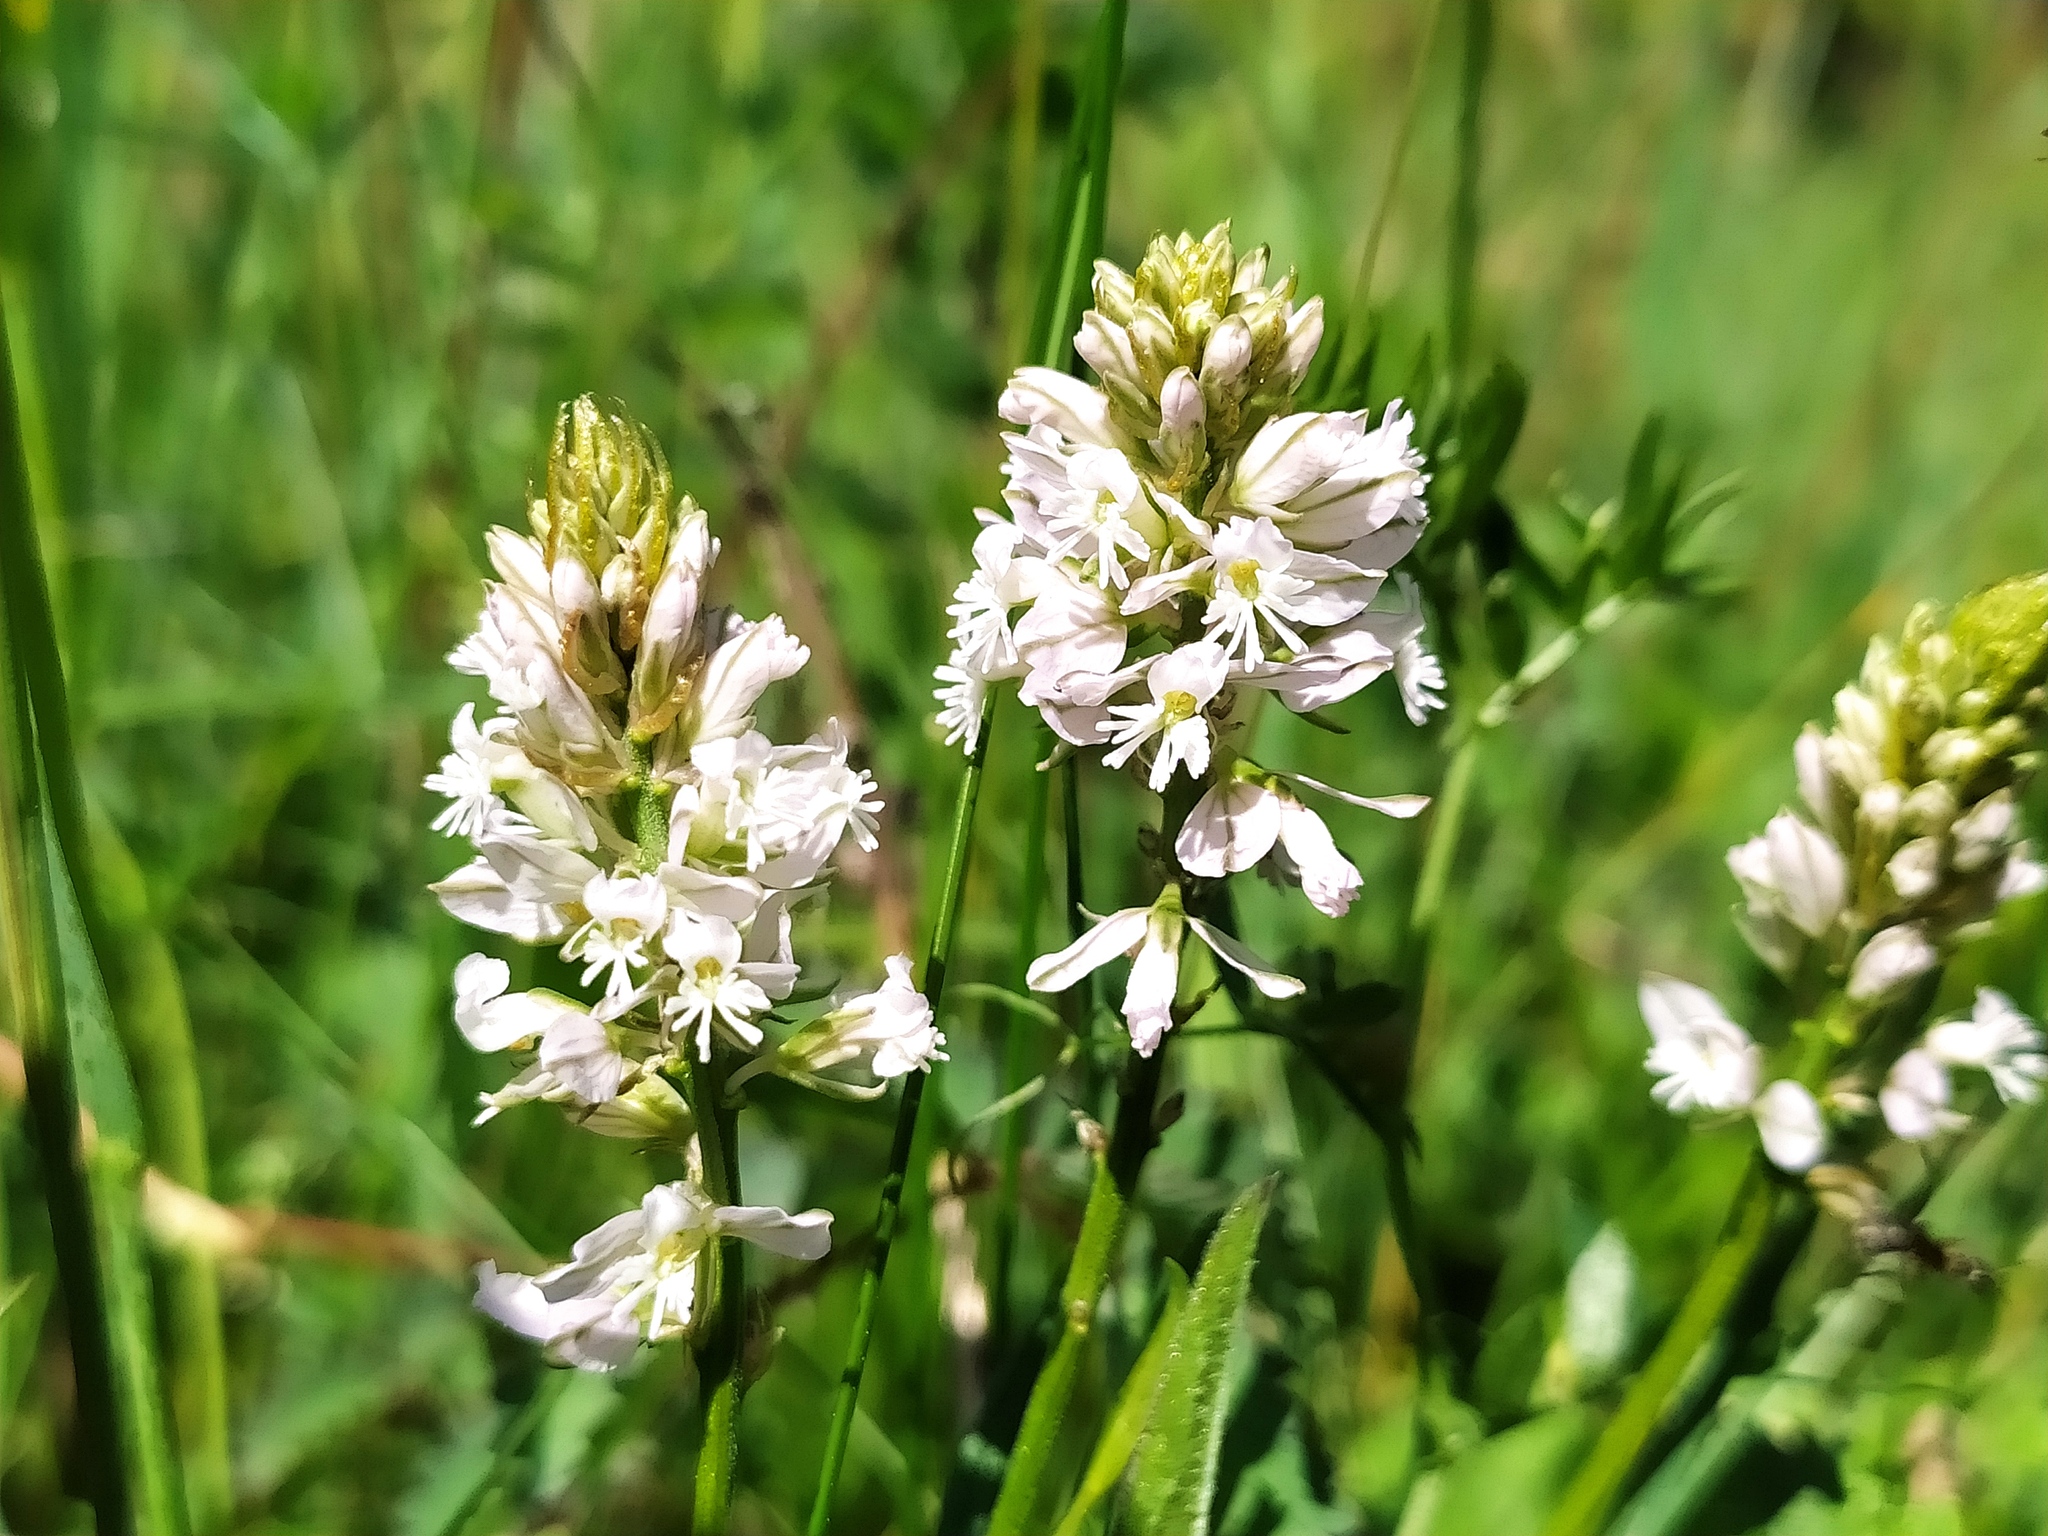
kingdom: Plantae
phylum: Tracheophyta
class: Magnoliopsida
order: Fabales
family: Polygalaceae
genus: Polygala
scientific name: Polygala comosa
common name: Tufted milkwort
